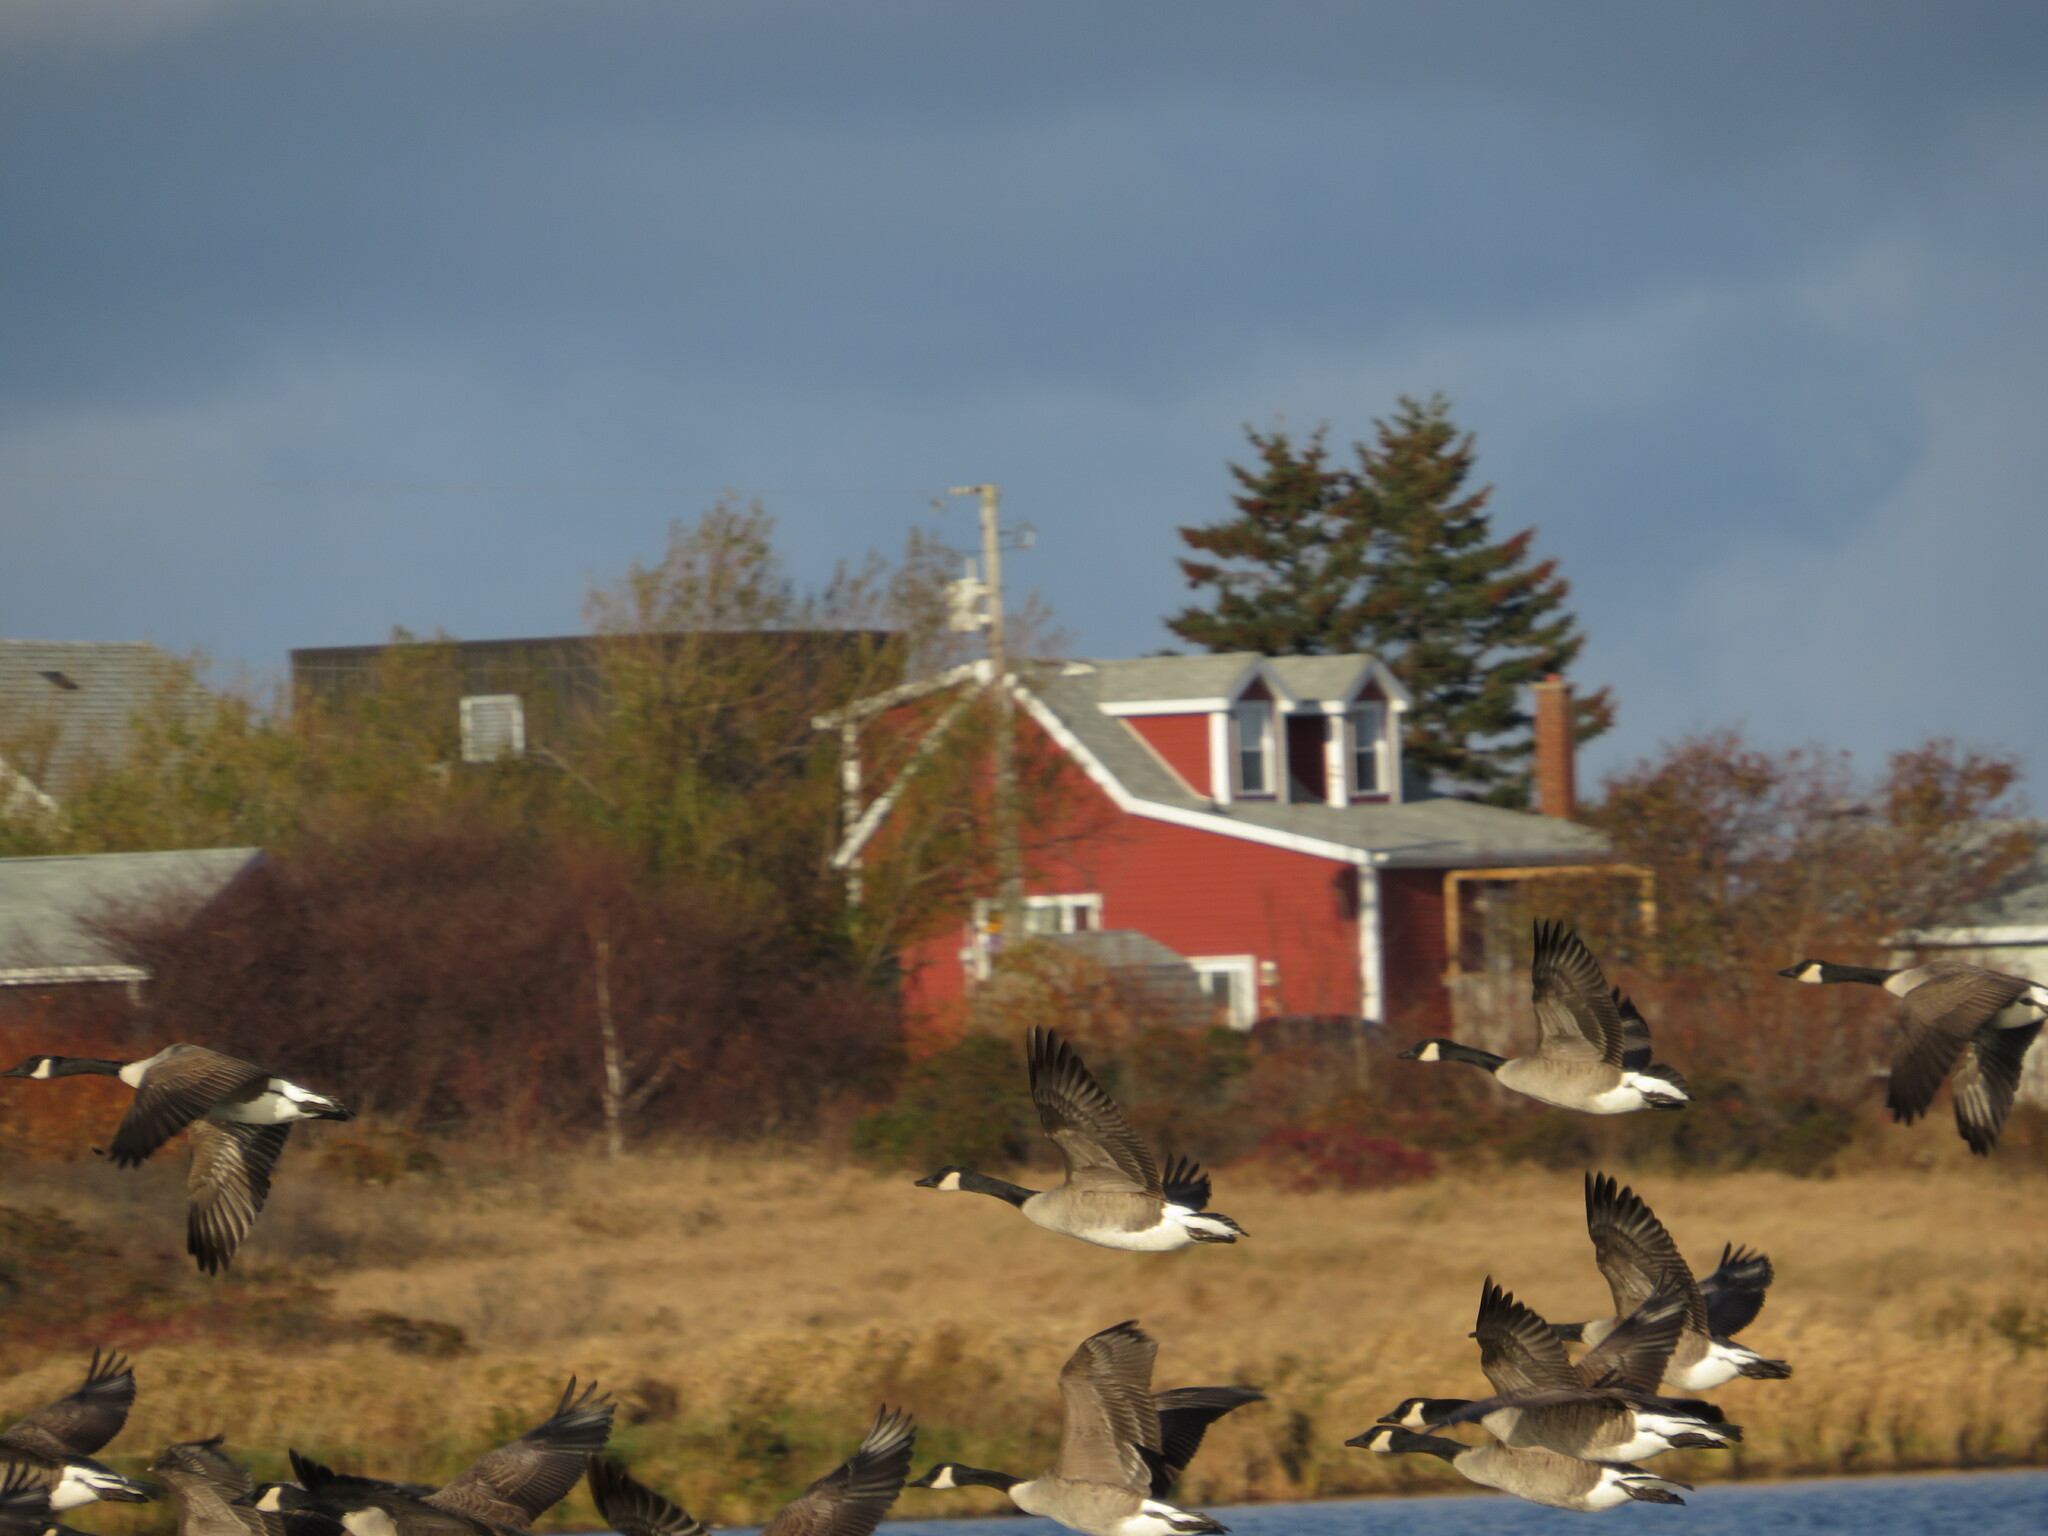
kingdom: Animalia
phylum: Chordata
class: Aves
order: Anseriformes
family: Anatidae
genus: Branta
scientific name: Branta canadensis
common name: Canada goose
